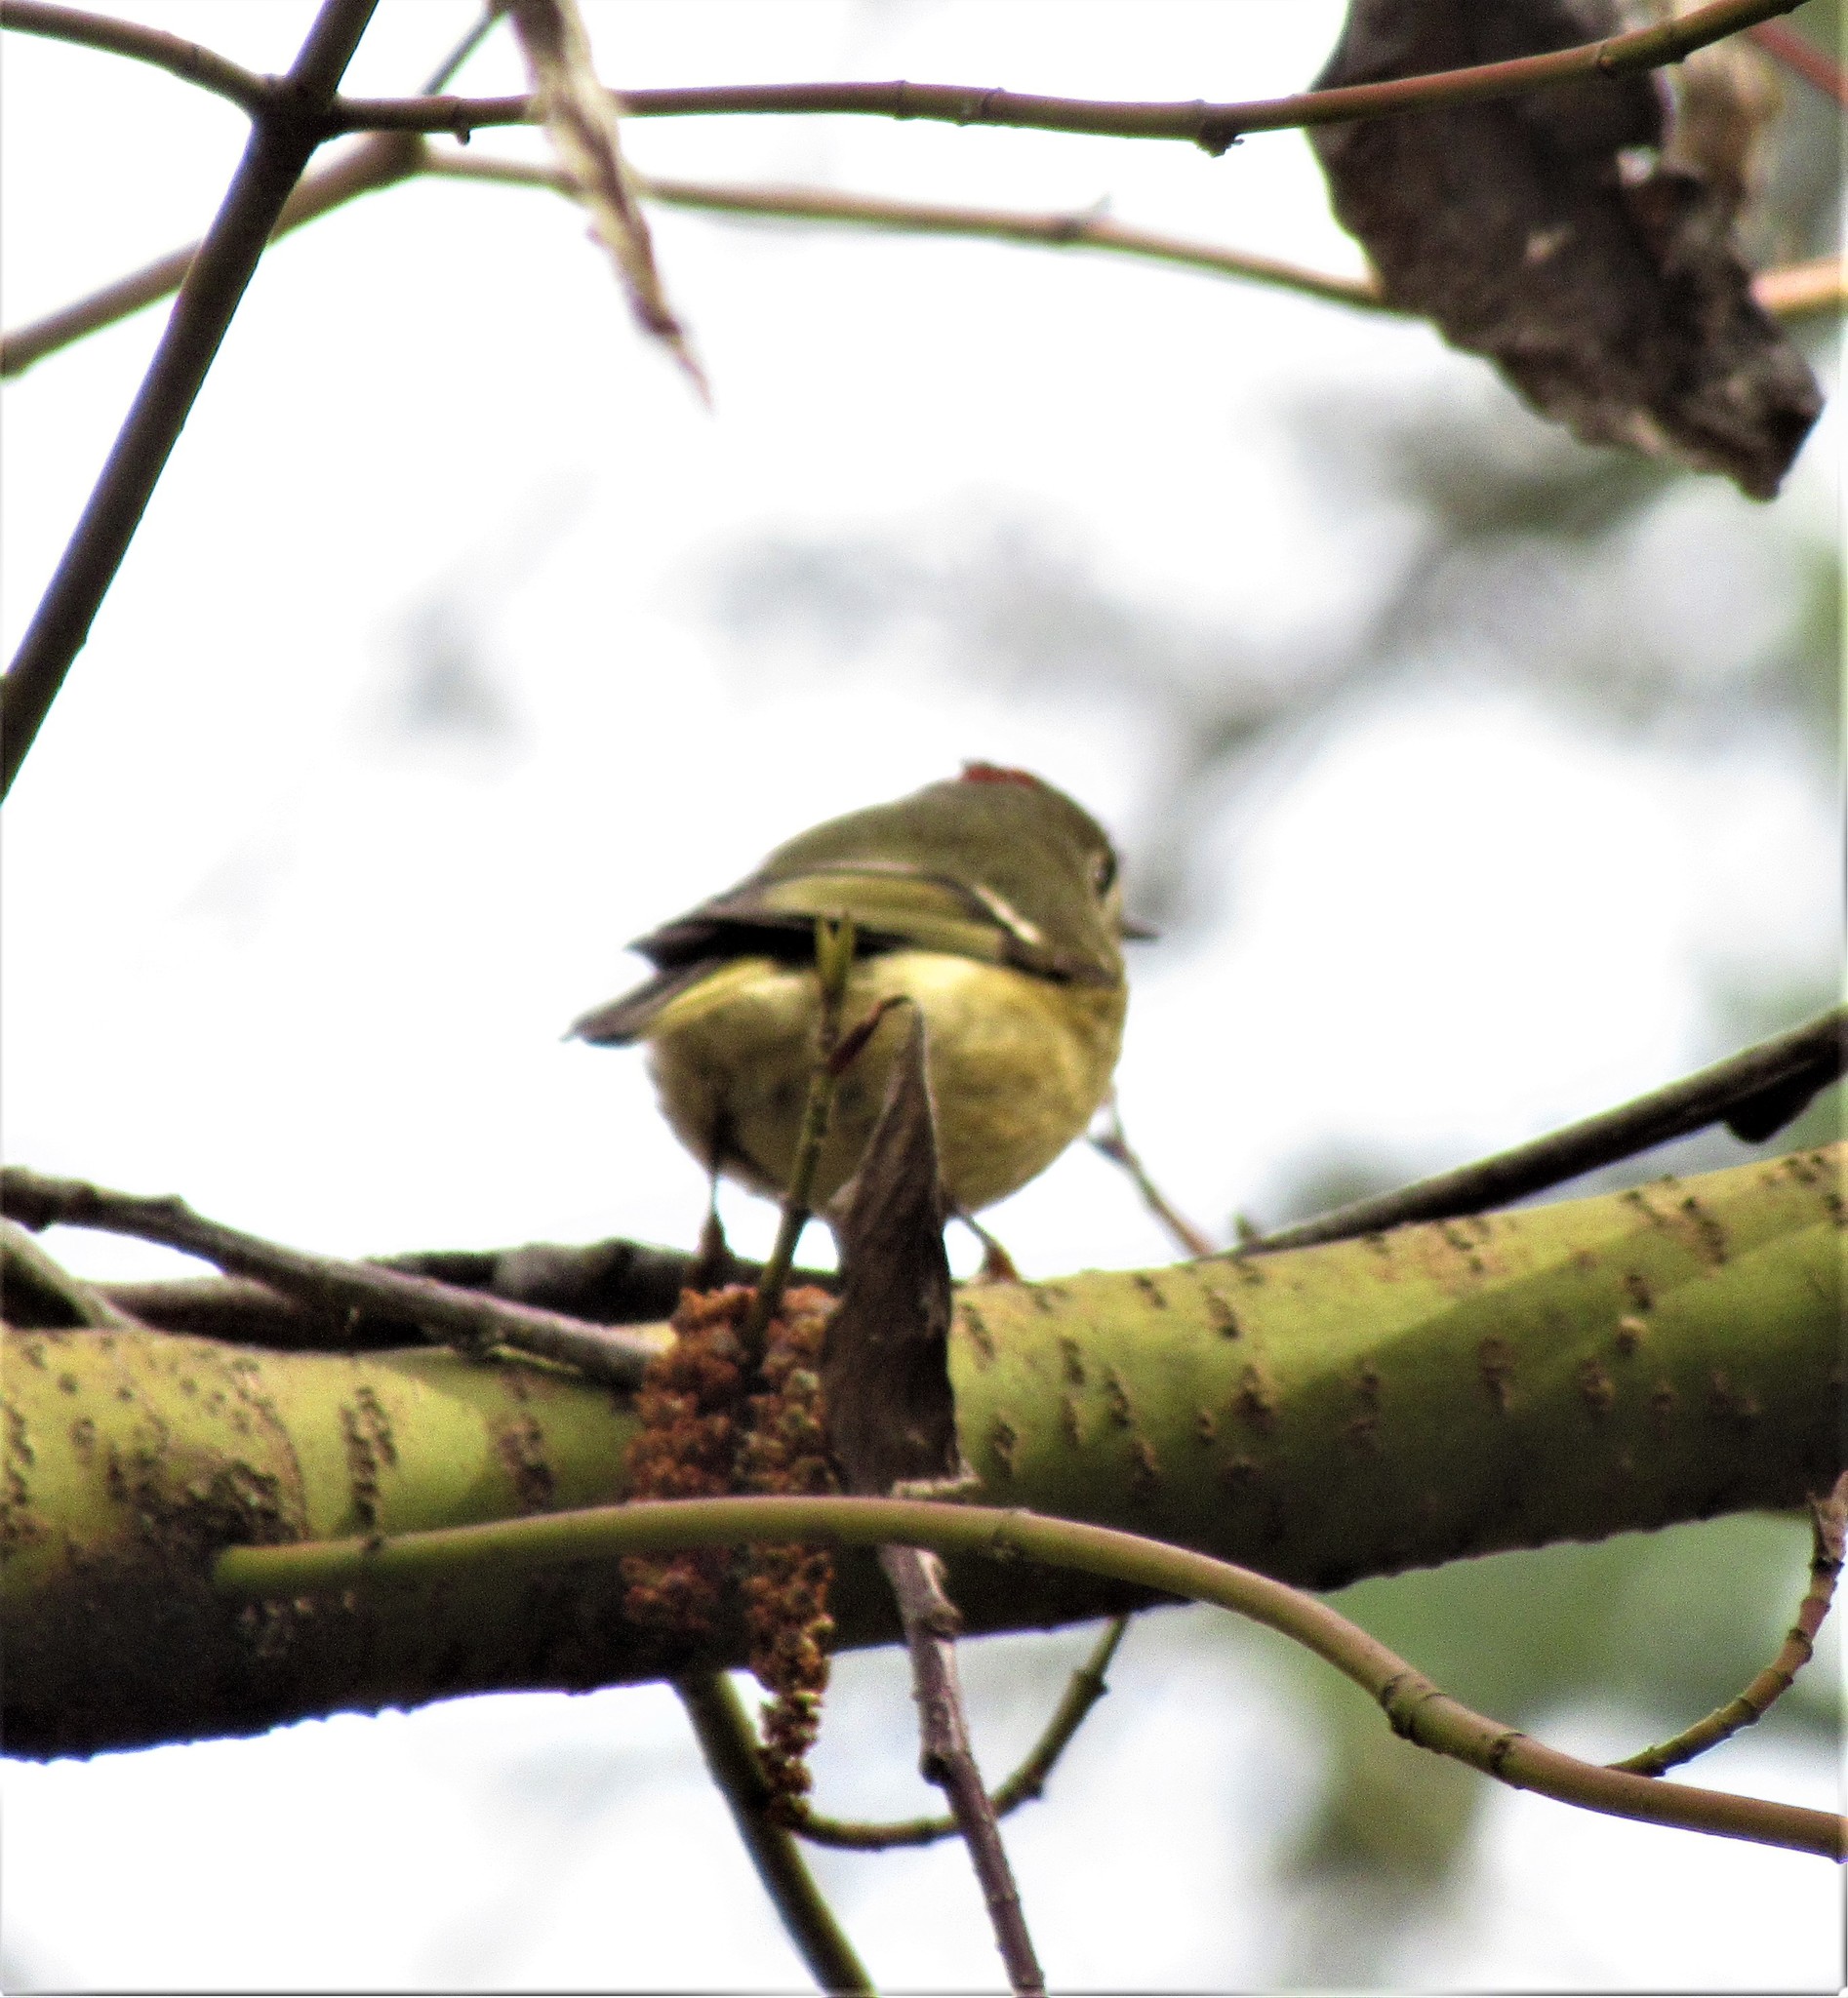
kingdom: Animalia
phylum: Chordata
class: Aves
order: Passeriformes
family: Regulidae
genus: Regulus
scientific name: Regulus calendula
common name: Ruby-crowned kinglet
